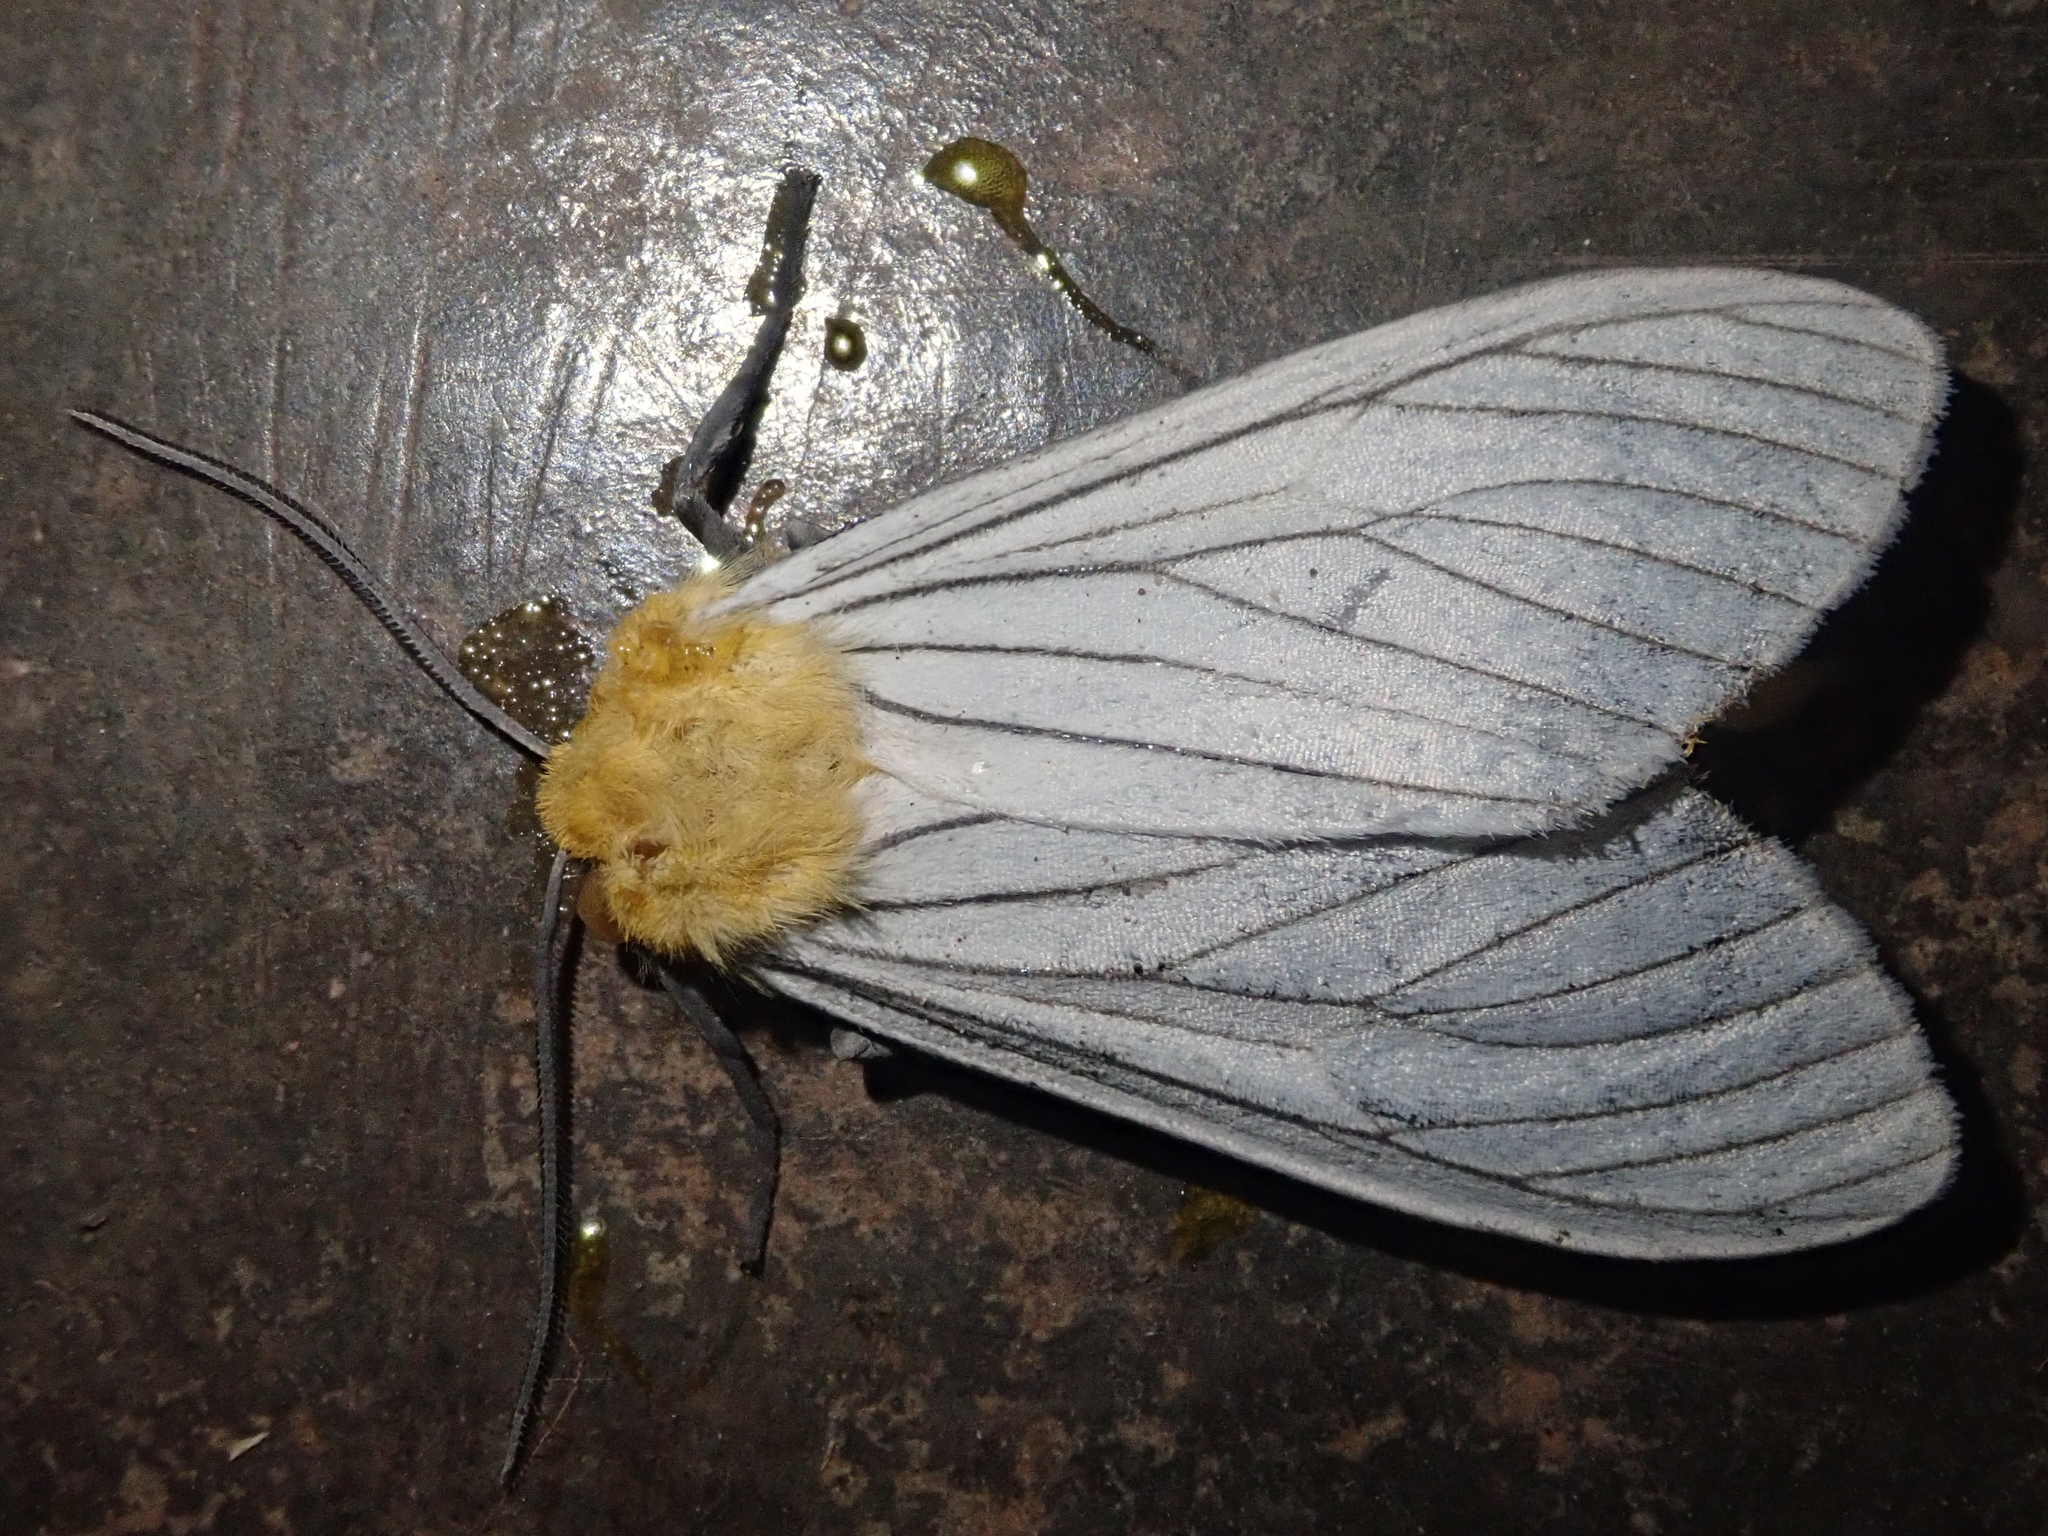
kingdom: Animalia
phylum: Arthropoda
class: Insecta
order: Lepidoptera
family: Erebidae
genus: Pseudischnocampa
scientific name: Pseudischnocampa nigridorsata
